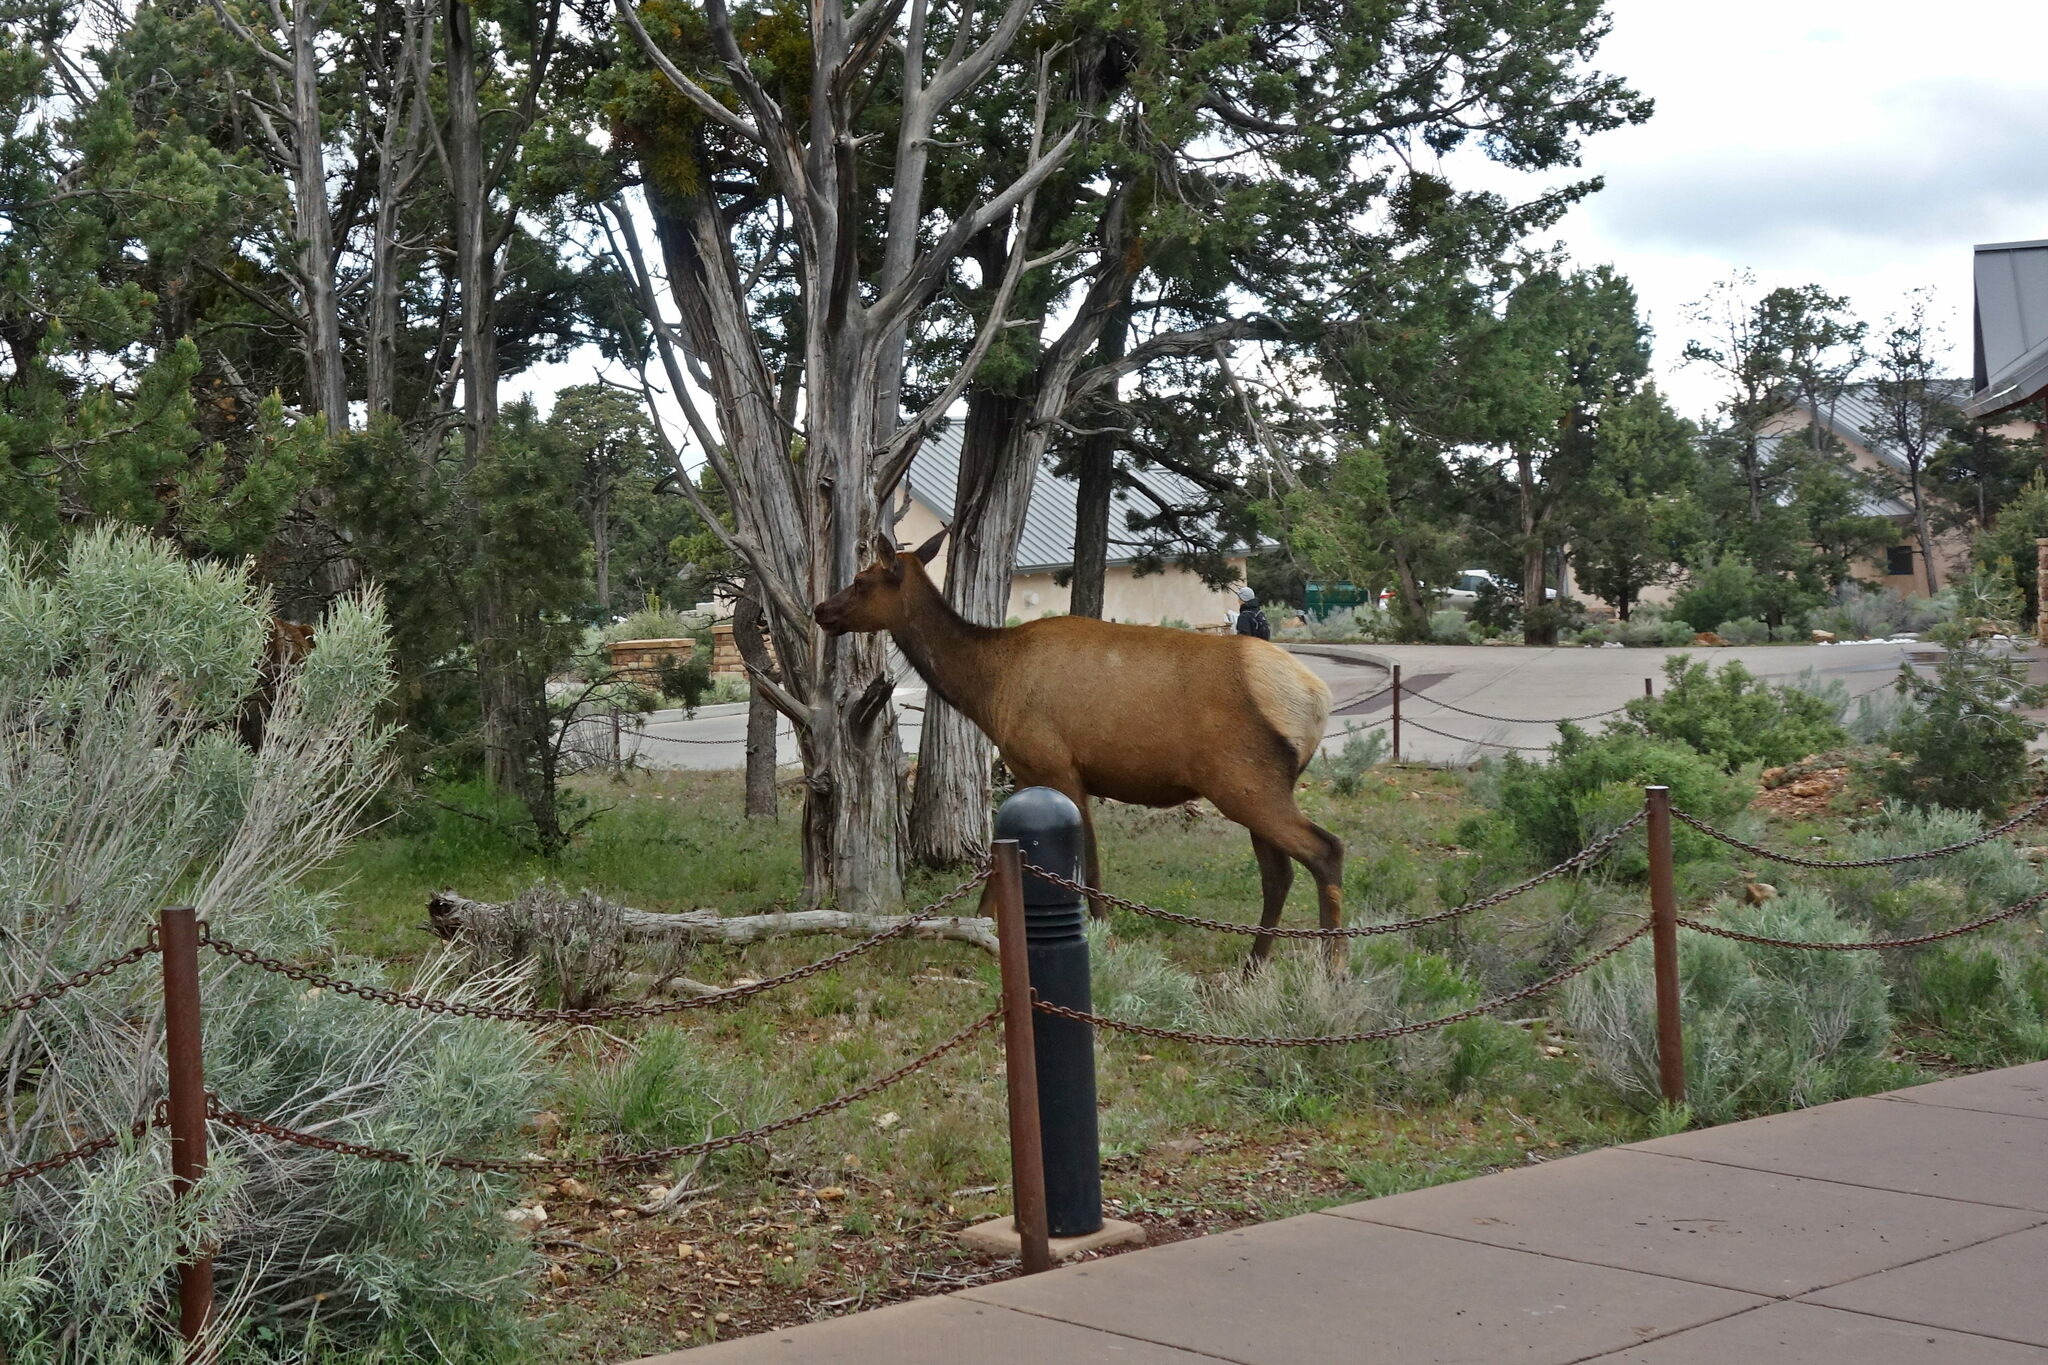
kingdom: Animalia
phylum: Chordata
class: Mammalia
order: Artiodactyla
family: Cervidae
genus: Cervus
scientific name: Cervus elaphus
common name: Red deer
